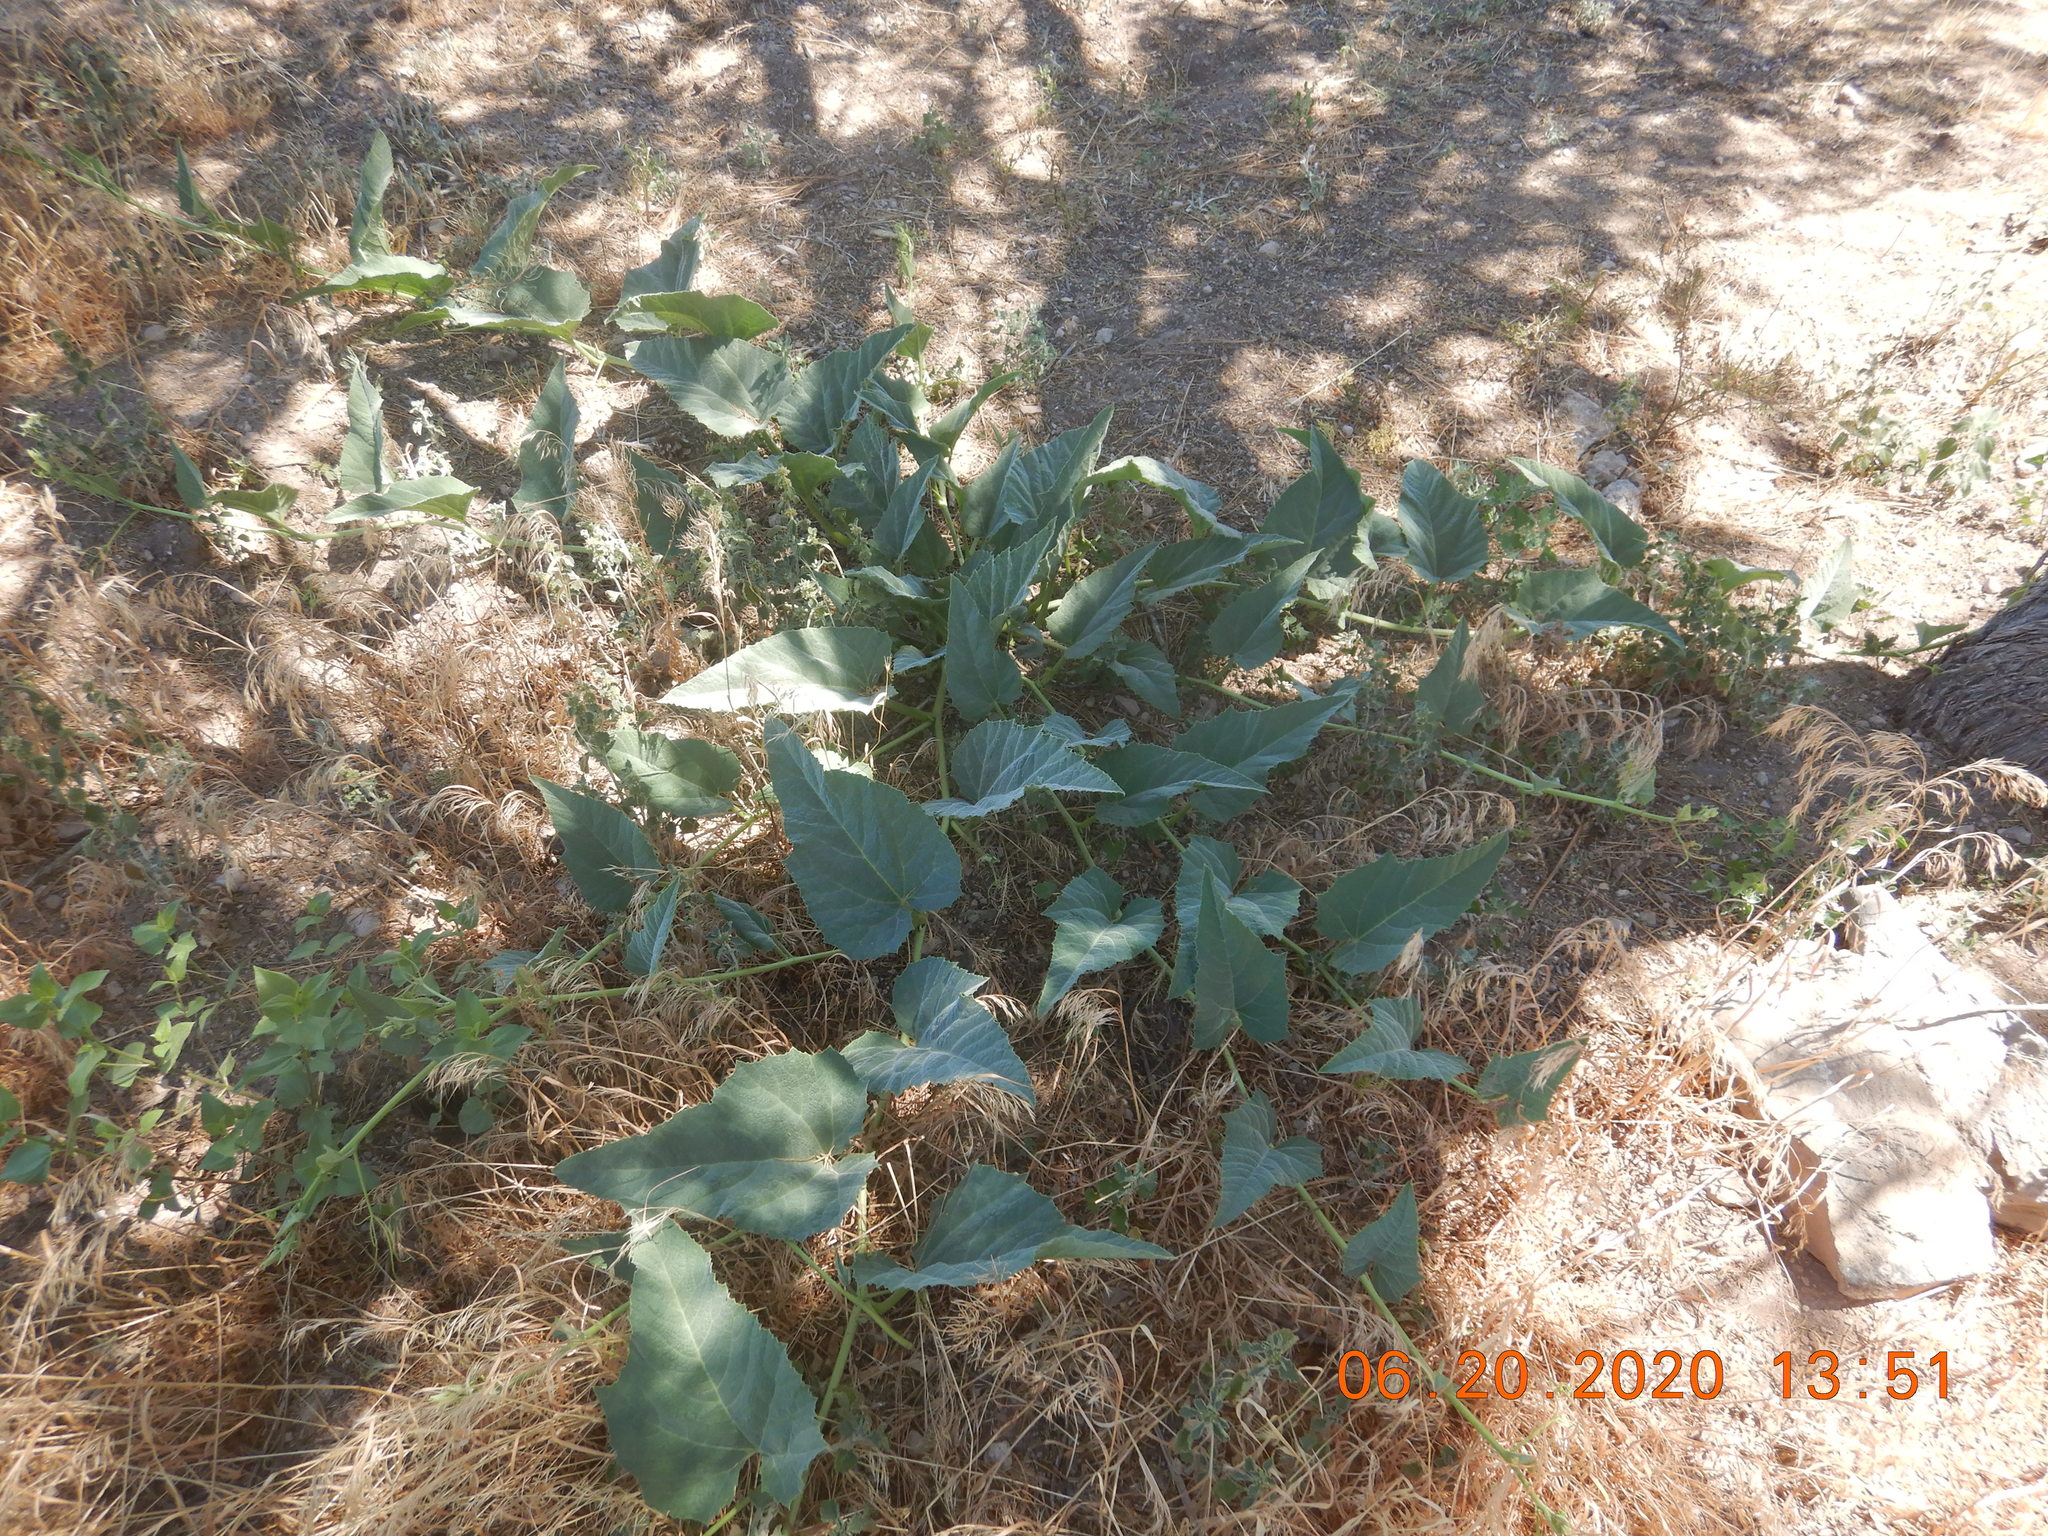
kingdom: Plantae
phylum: Tracheophyta
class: Magnoliopsida
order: Cucurbitales
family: Cucurbitaceae
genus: Cucurbita
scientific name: Cucurbita foetidissima
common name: Buffalo gourd
